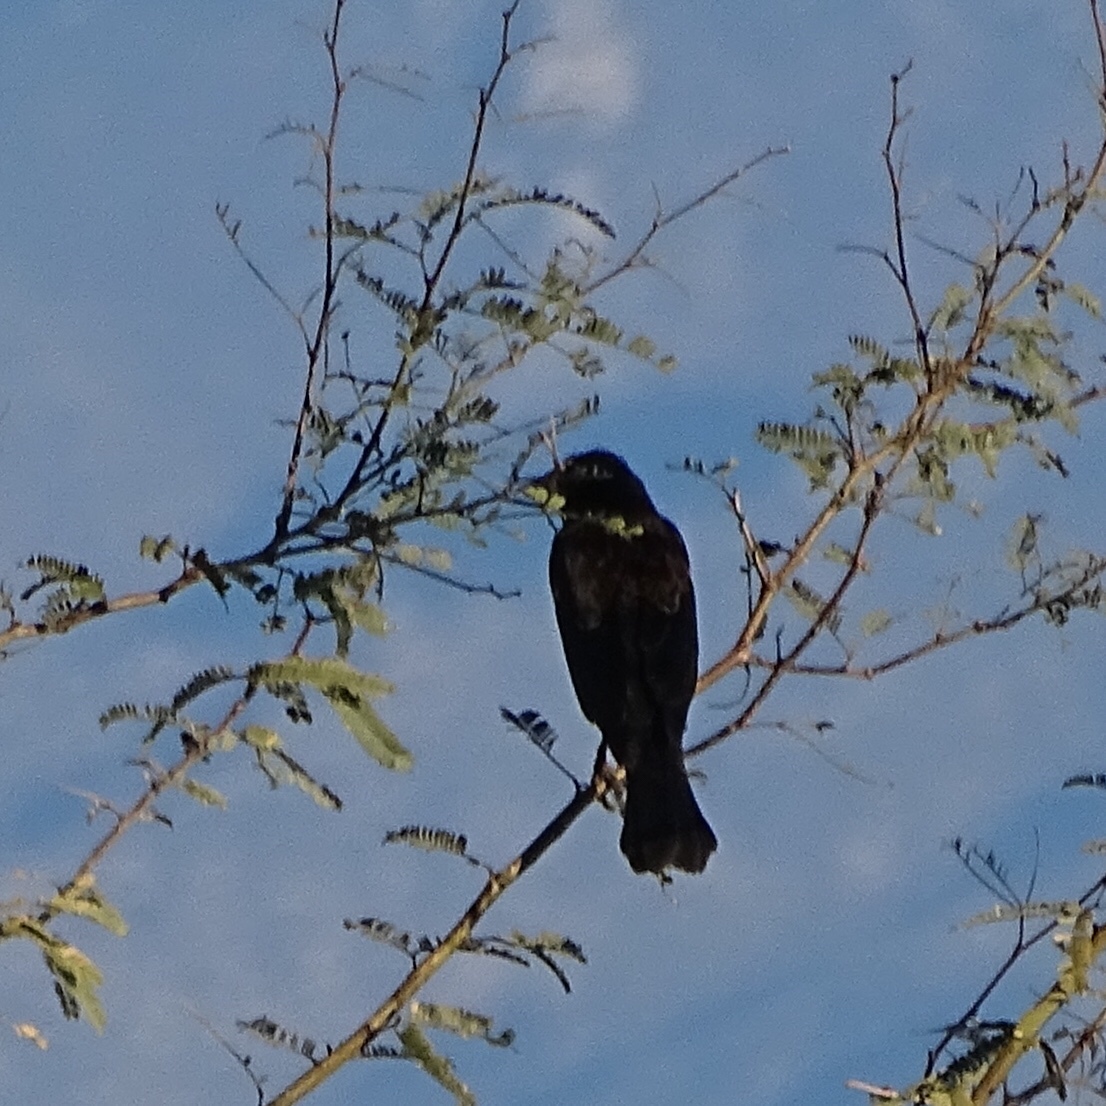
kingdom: Animalia
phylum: Chordata
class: Aves
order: Passeriformes
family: Icteridae
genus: Agelaius
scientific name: Agelaius phoeniceus
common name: Red-winged blackbird
